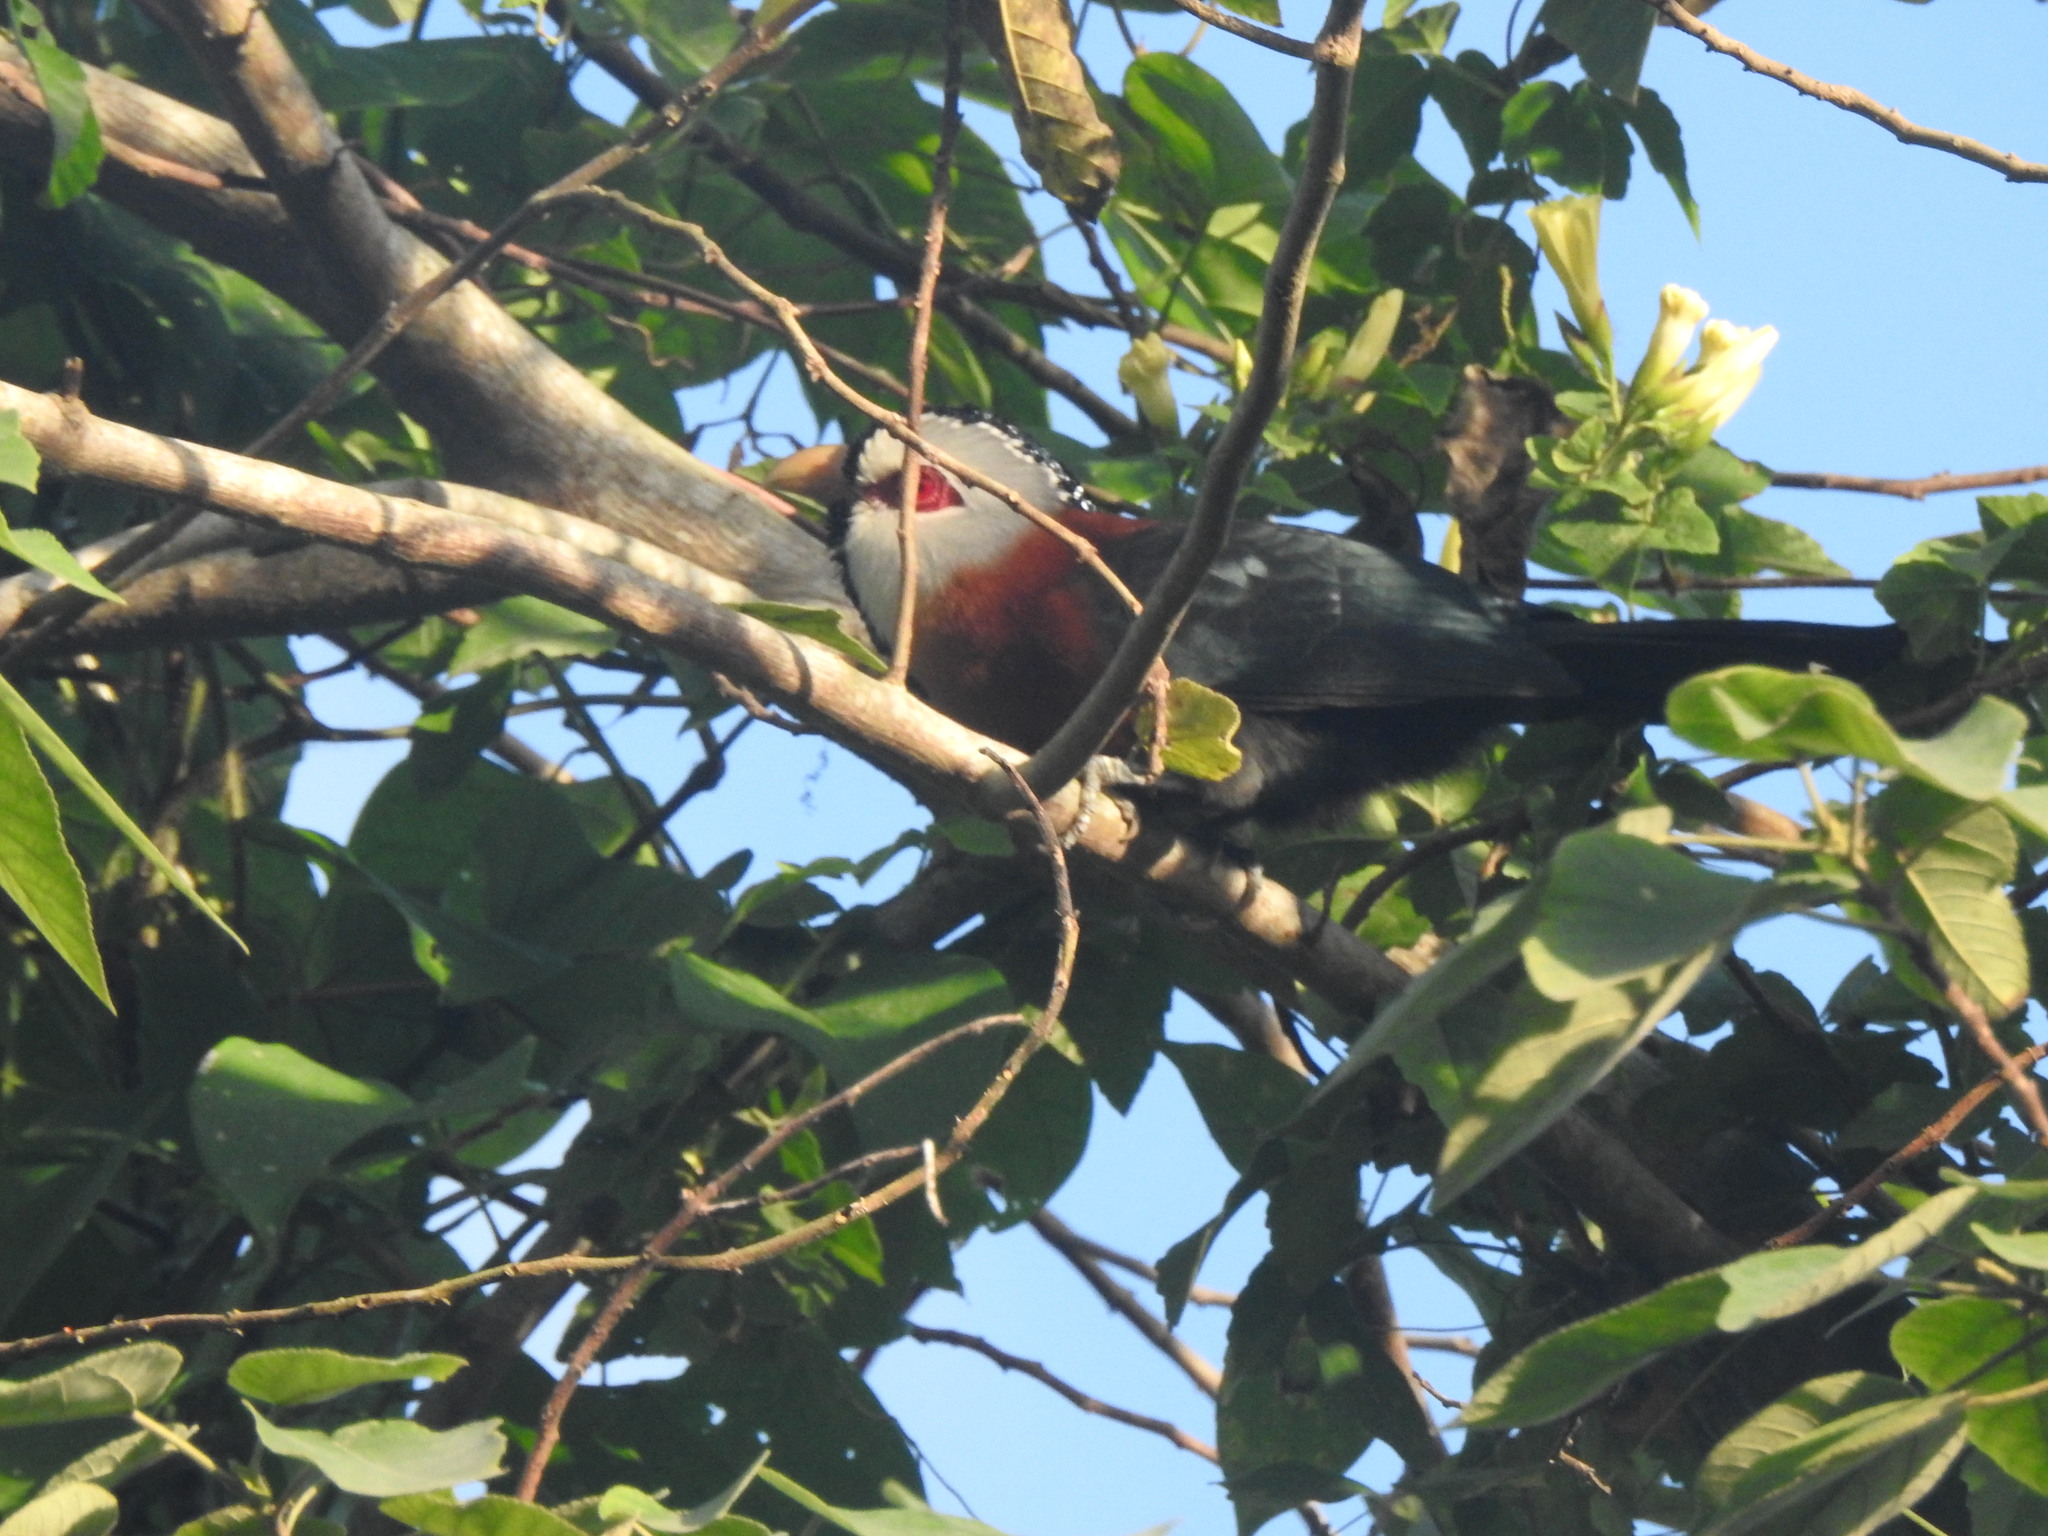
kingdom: Animalia
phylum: Chordata
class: Aves
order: Cuculiformes
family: Cuculidae
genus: Lepidogrammus
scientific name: Lepidogrammus cumingi
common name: Scale-feathered malkoha
